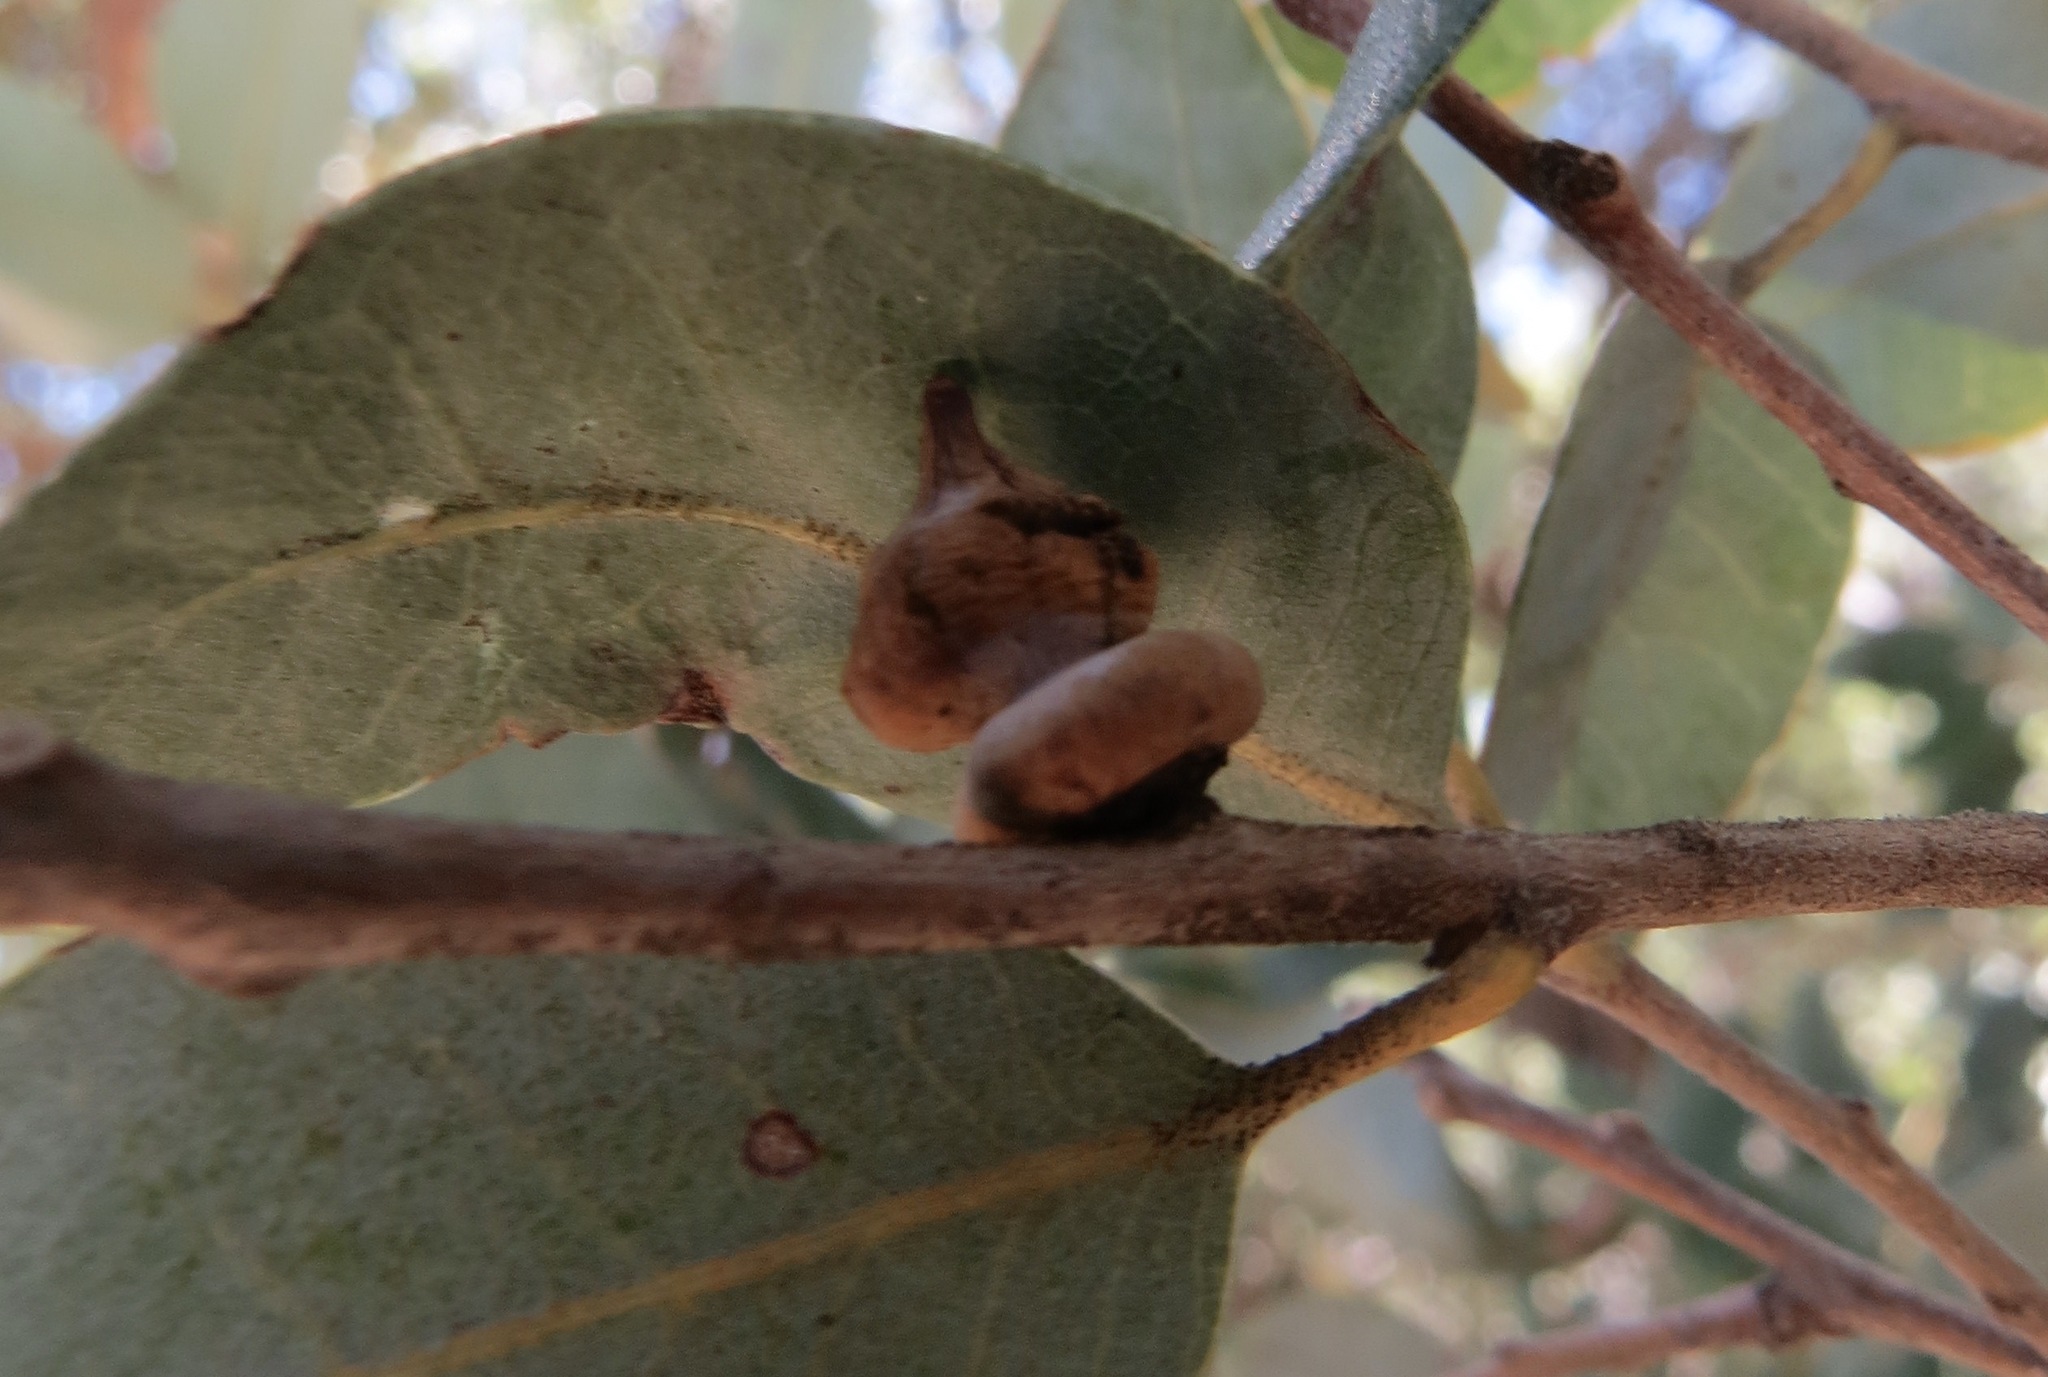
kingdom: Animalia
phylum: Arthropoda
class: Insecta
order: Hymenoptera
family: Cynipidae
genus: Heteroecus
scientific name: Heteroecus
